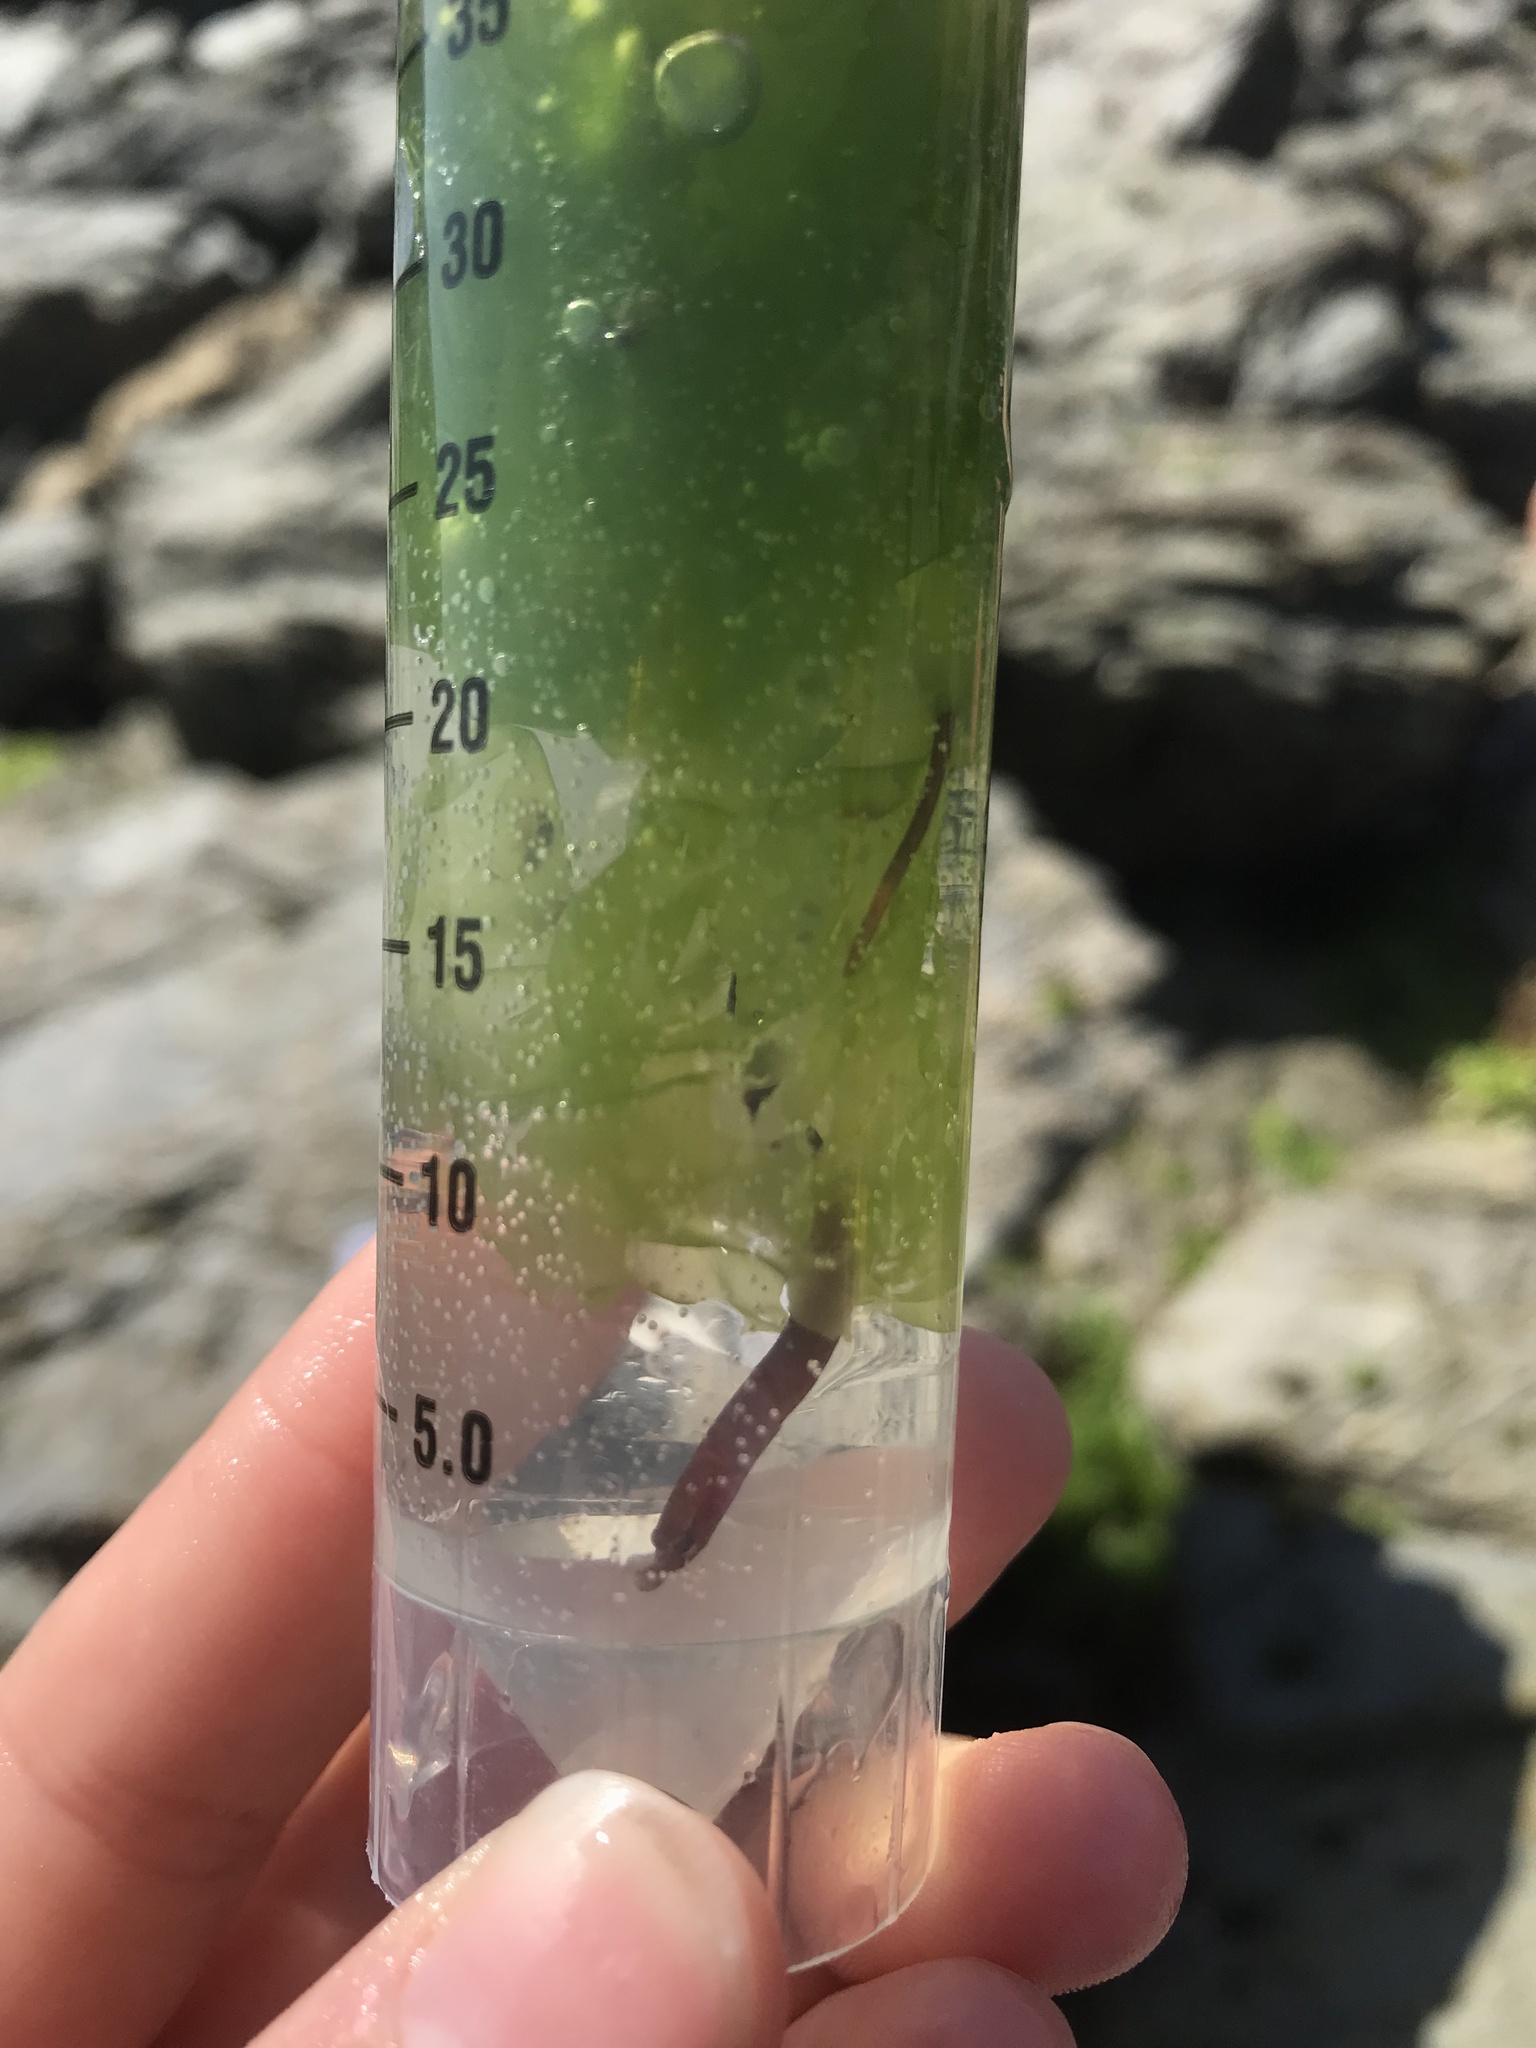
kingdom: Animalia
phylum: Chordata
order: Syngnathiformes
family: Syngnathidae
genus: Nerophis
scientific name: Nerophis lumbriciformis
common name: Worm pipefish
